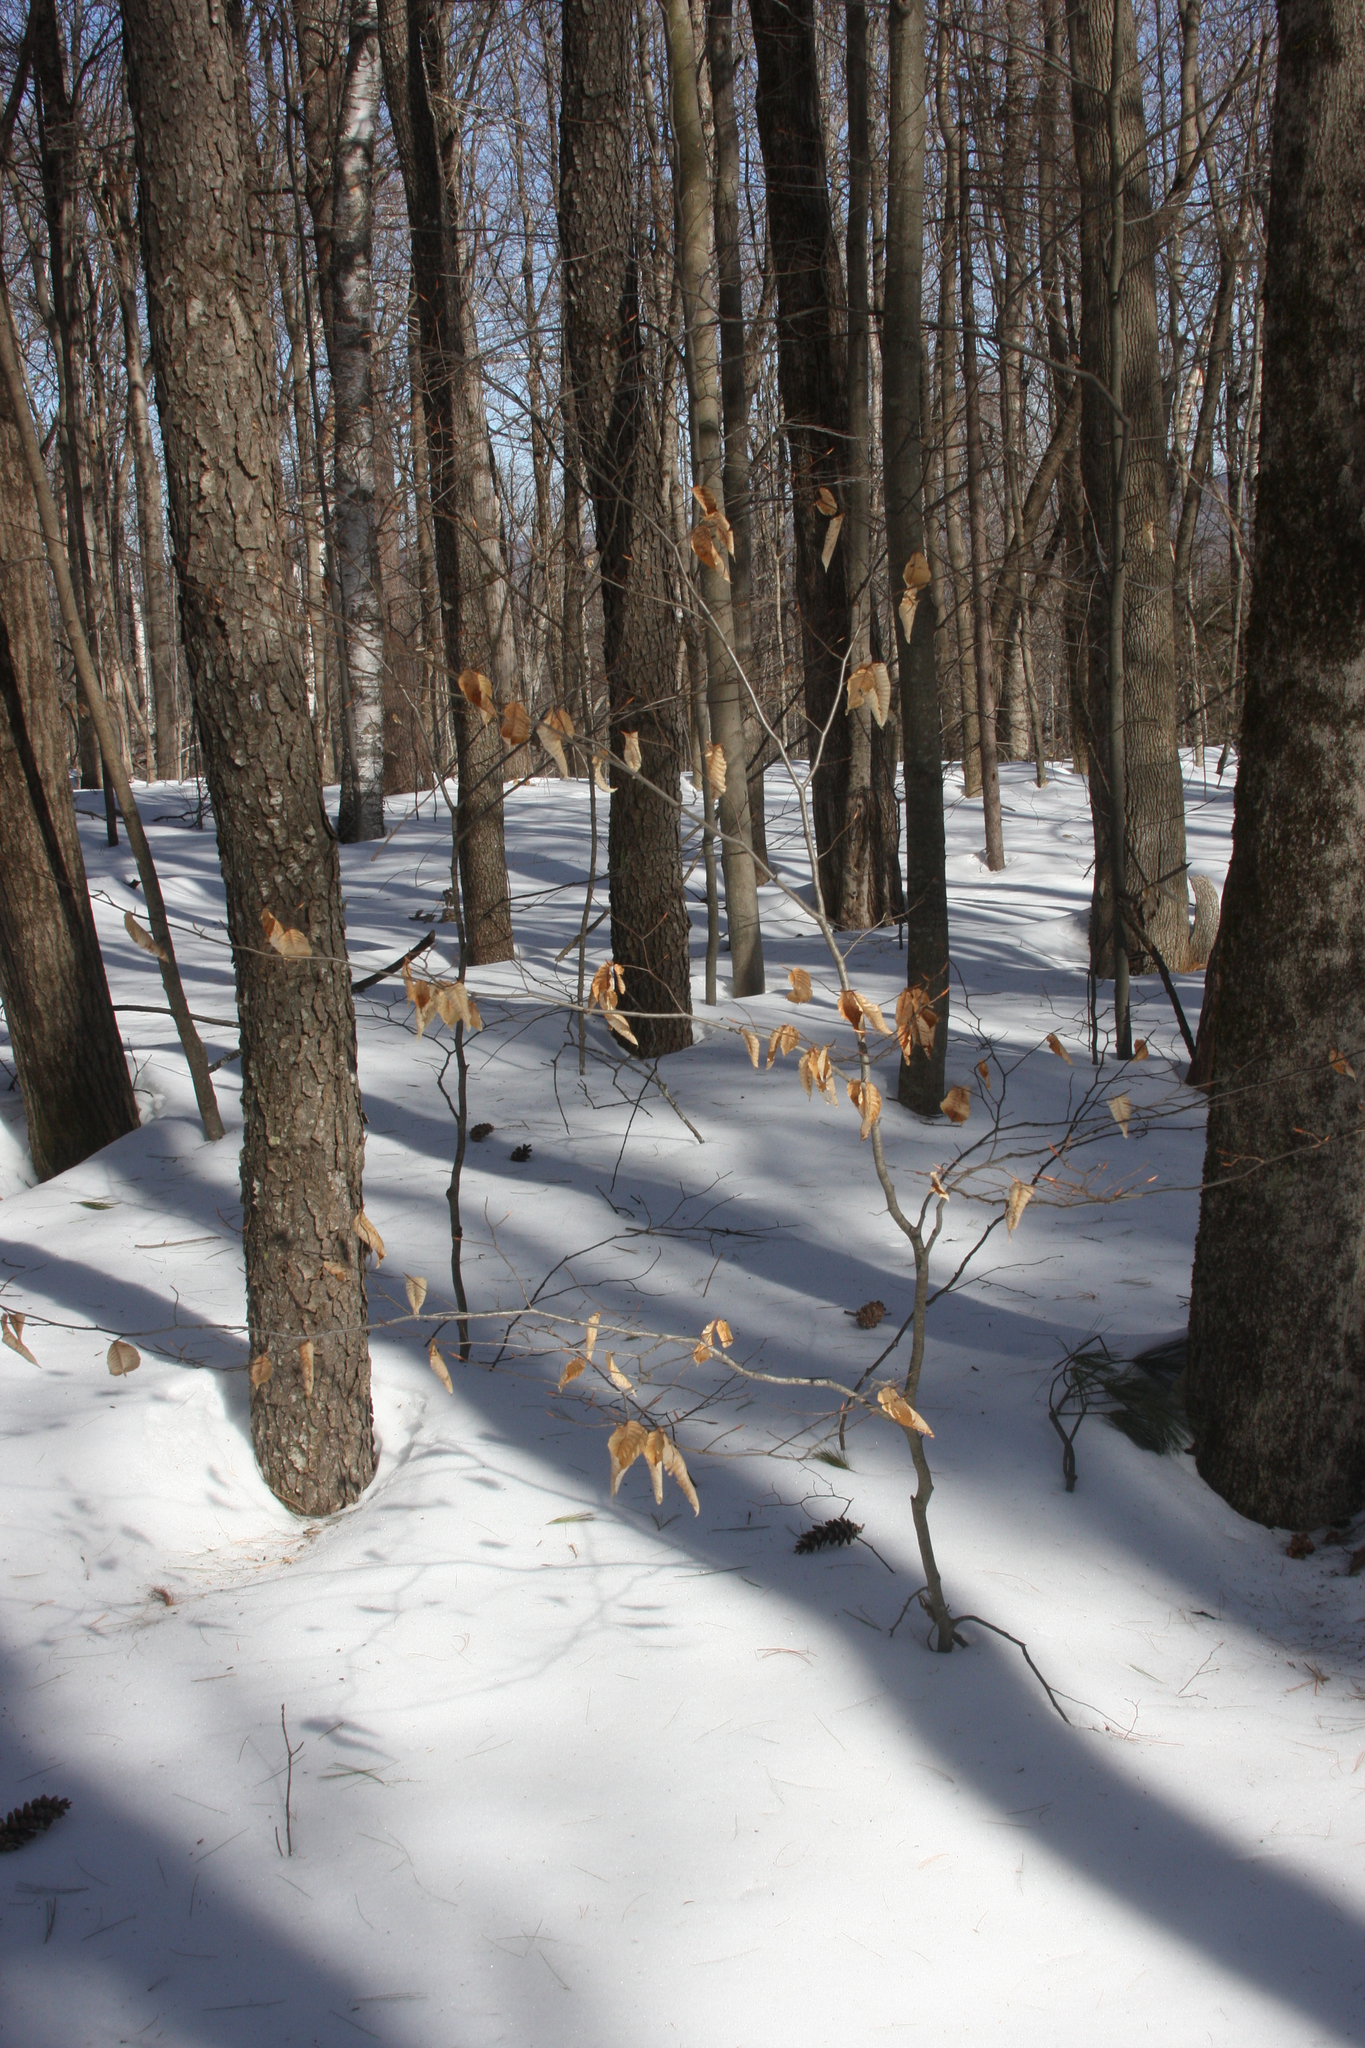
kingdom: Plantae
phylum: Tracheophyta
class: Magnoliopsida
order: Fagales
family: Fagaceae
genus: Fagus
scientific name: Fagus grandifolia
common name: American beech
